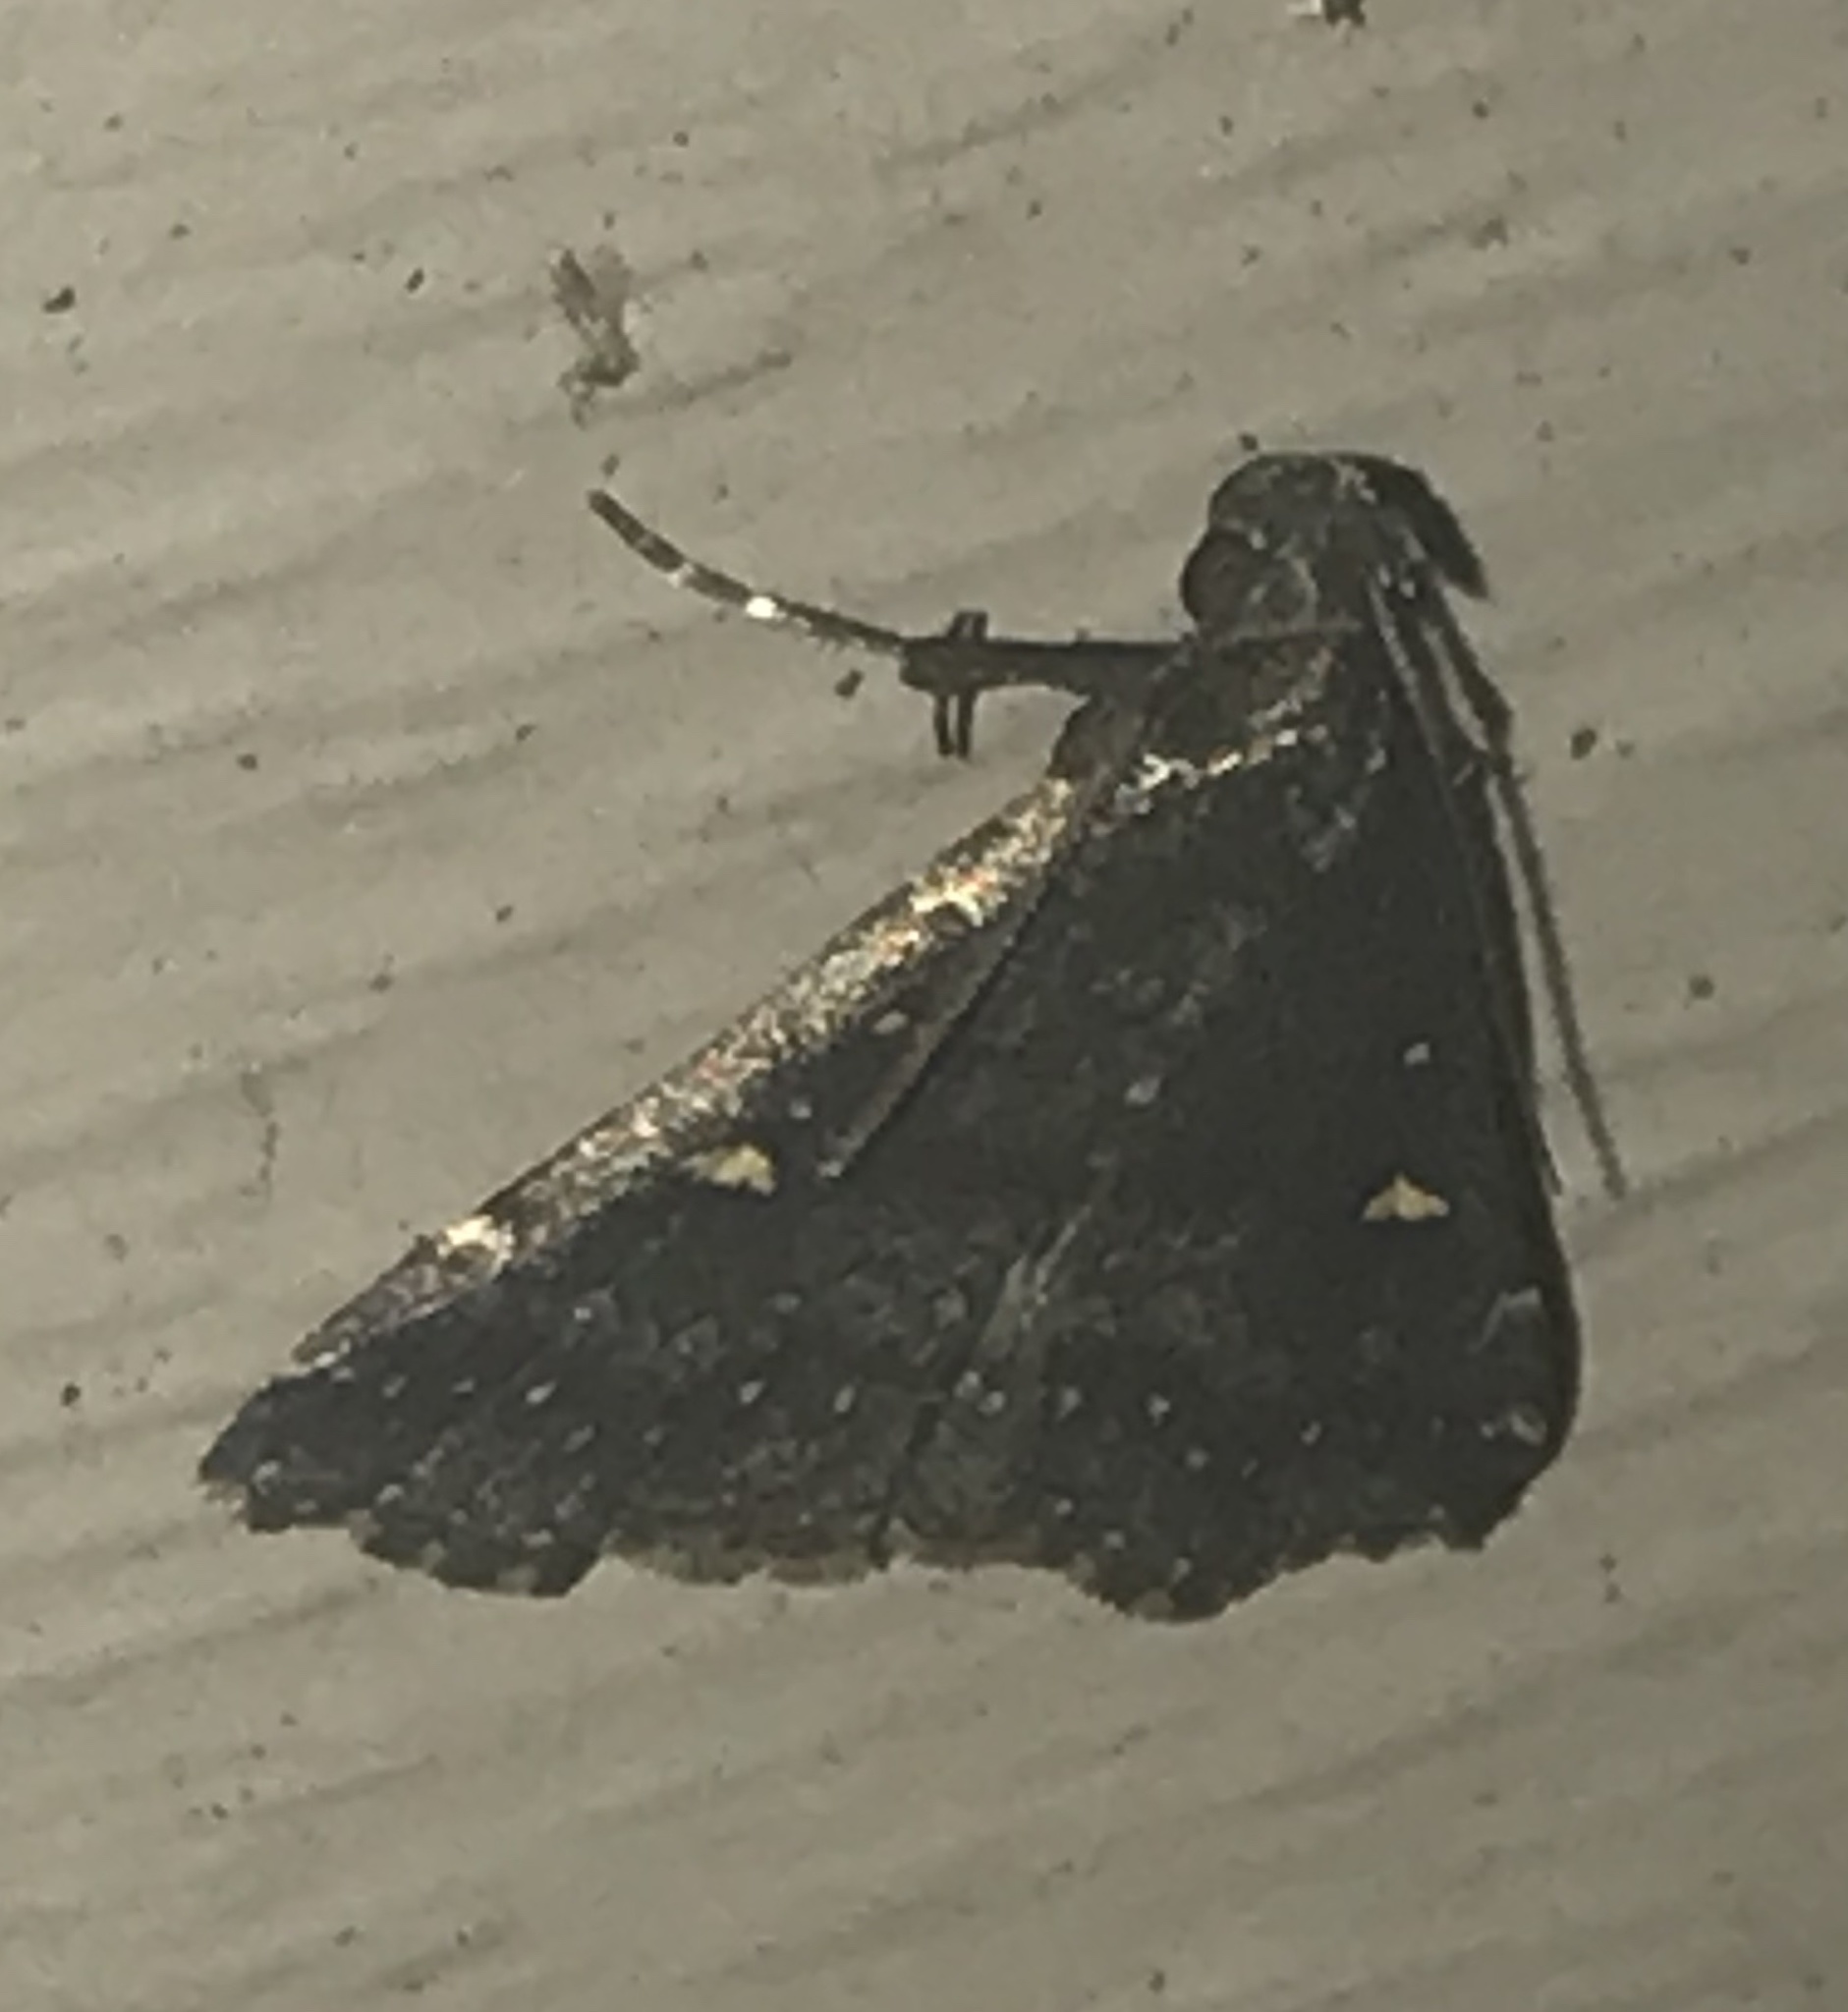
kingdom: Animalia
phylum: Arthropoda
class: Insecta
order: Lepidoptera
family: Erebidae
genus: Tetanolita
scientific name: Tetanolita mynesalis
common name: Smoky tetanolita moth
